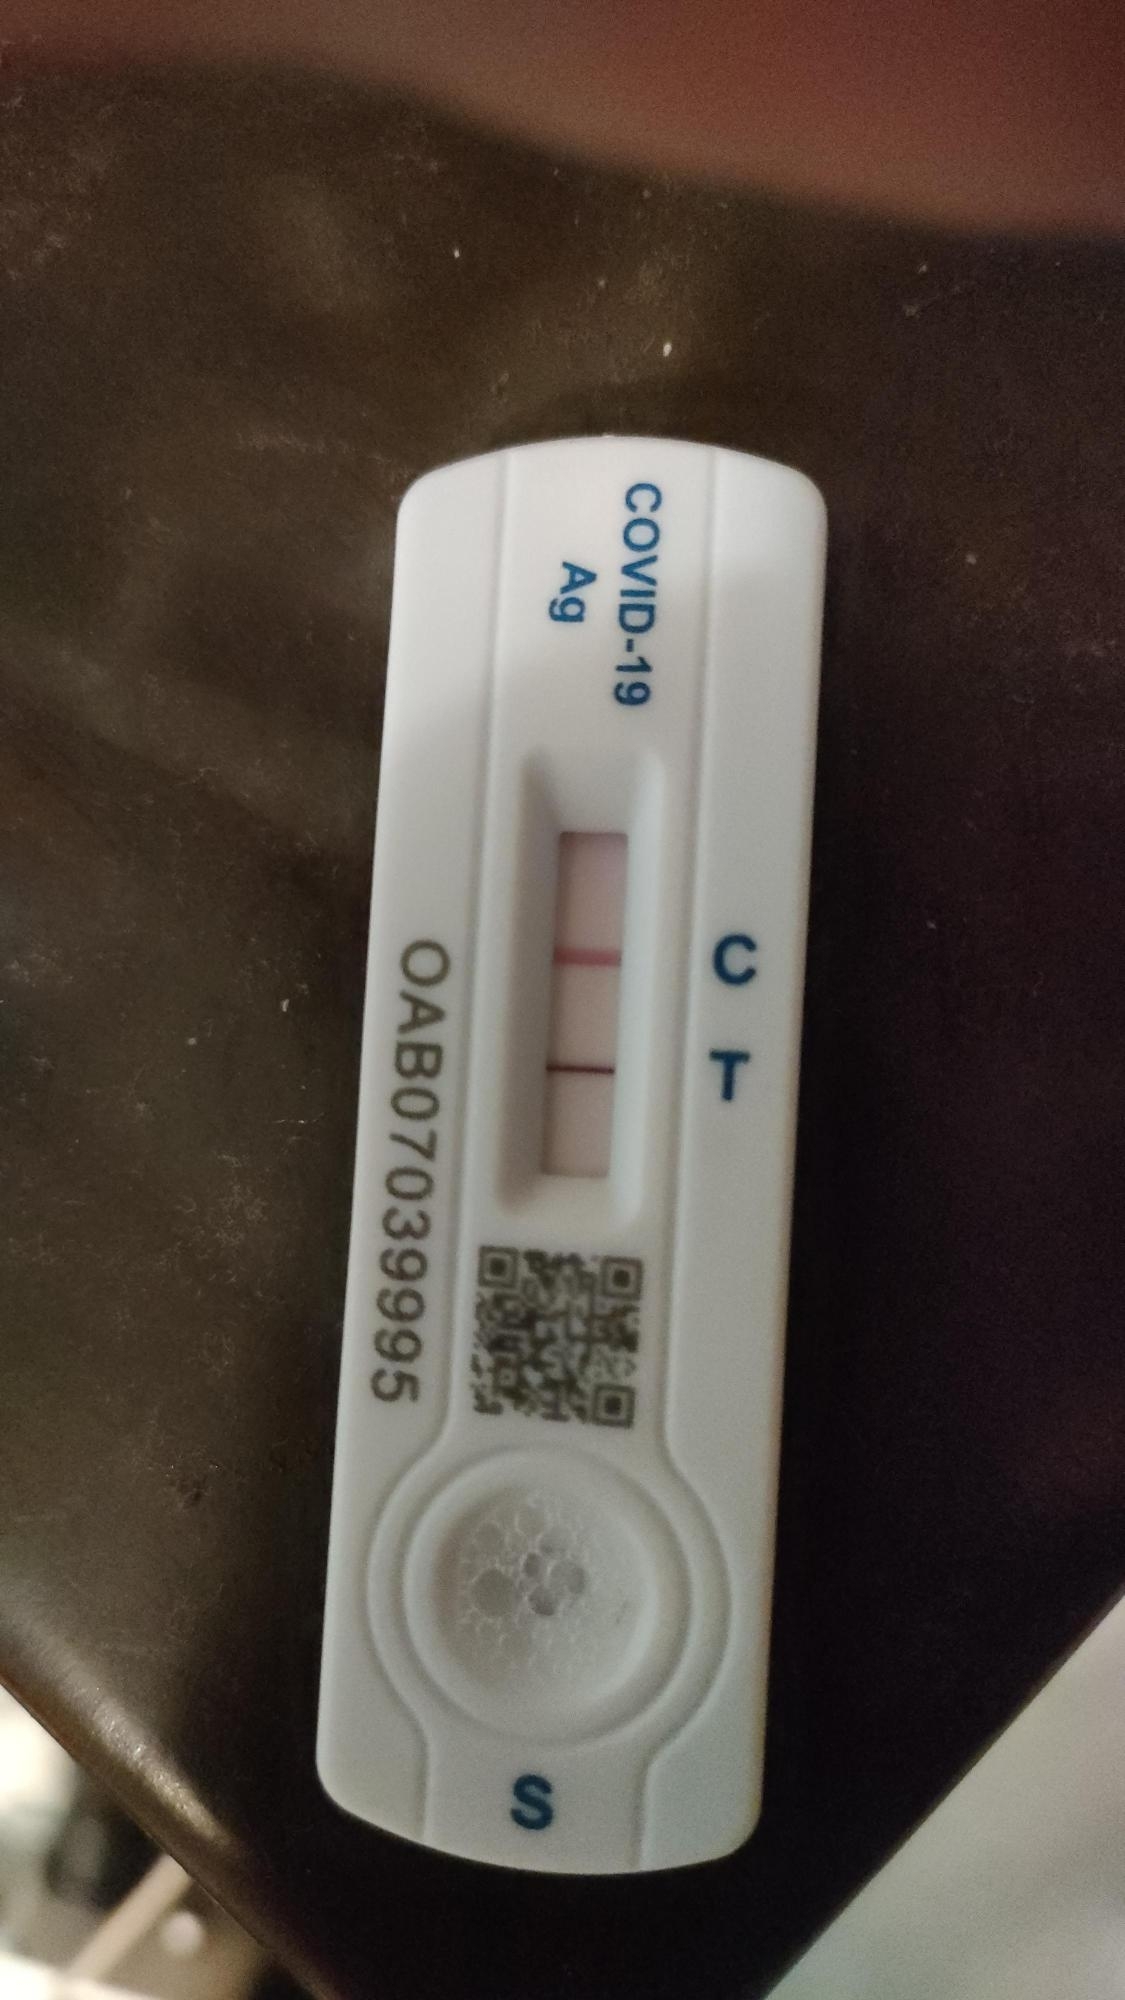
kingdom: Viruses
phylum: Pisuviricota
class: Pisoniviricetes
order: Nidovirales
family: Coronaviridae
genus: Betacoronavirus
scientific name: Betacoronavirus
